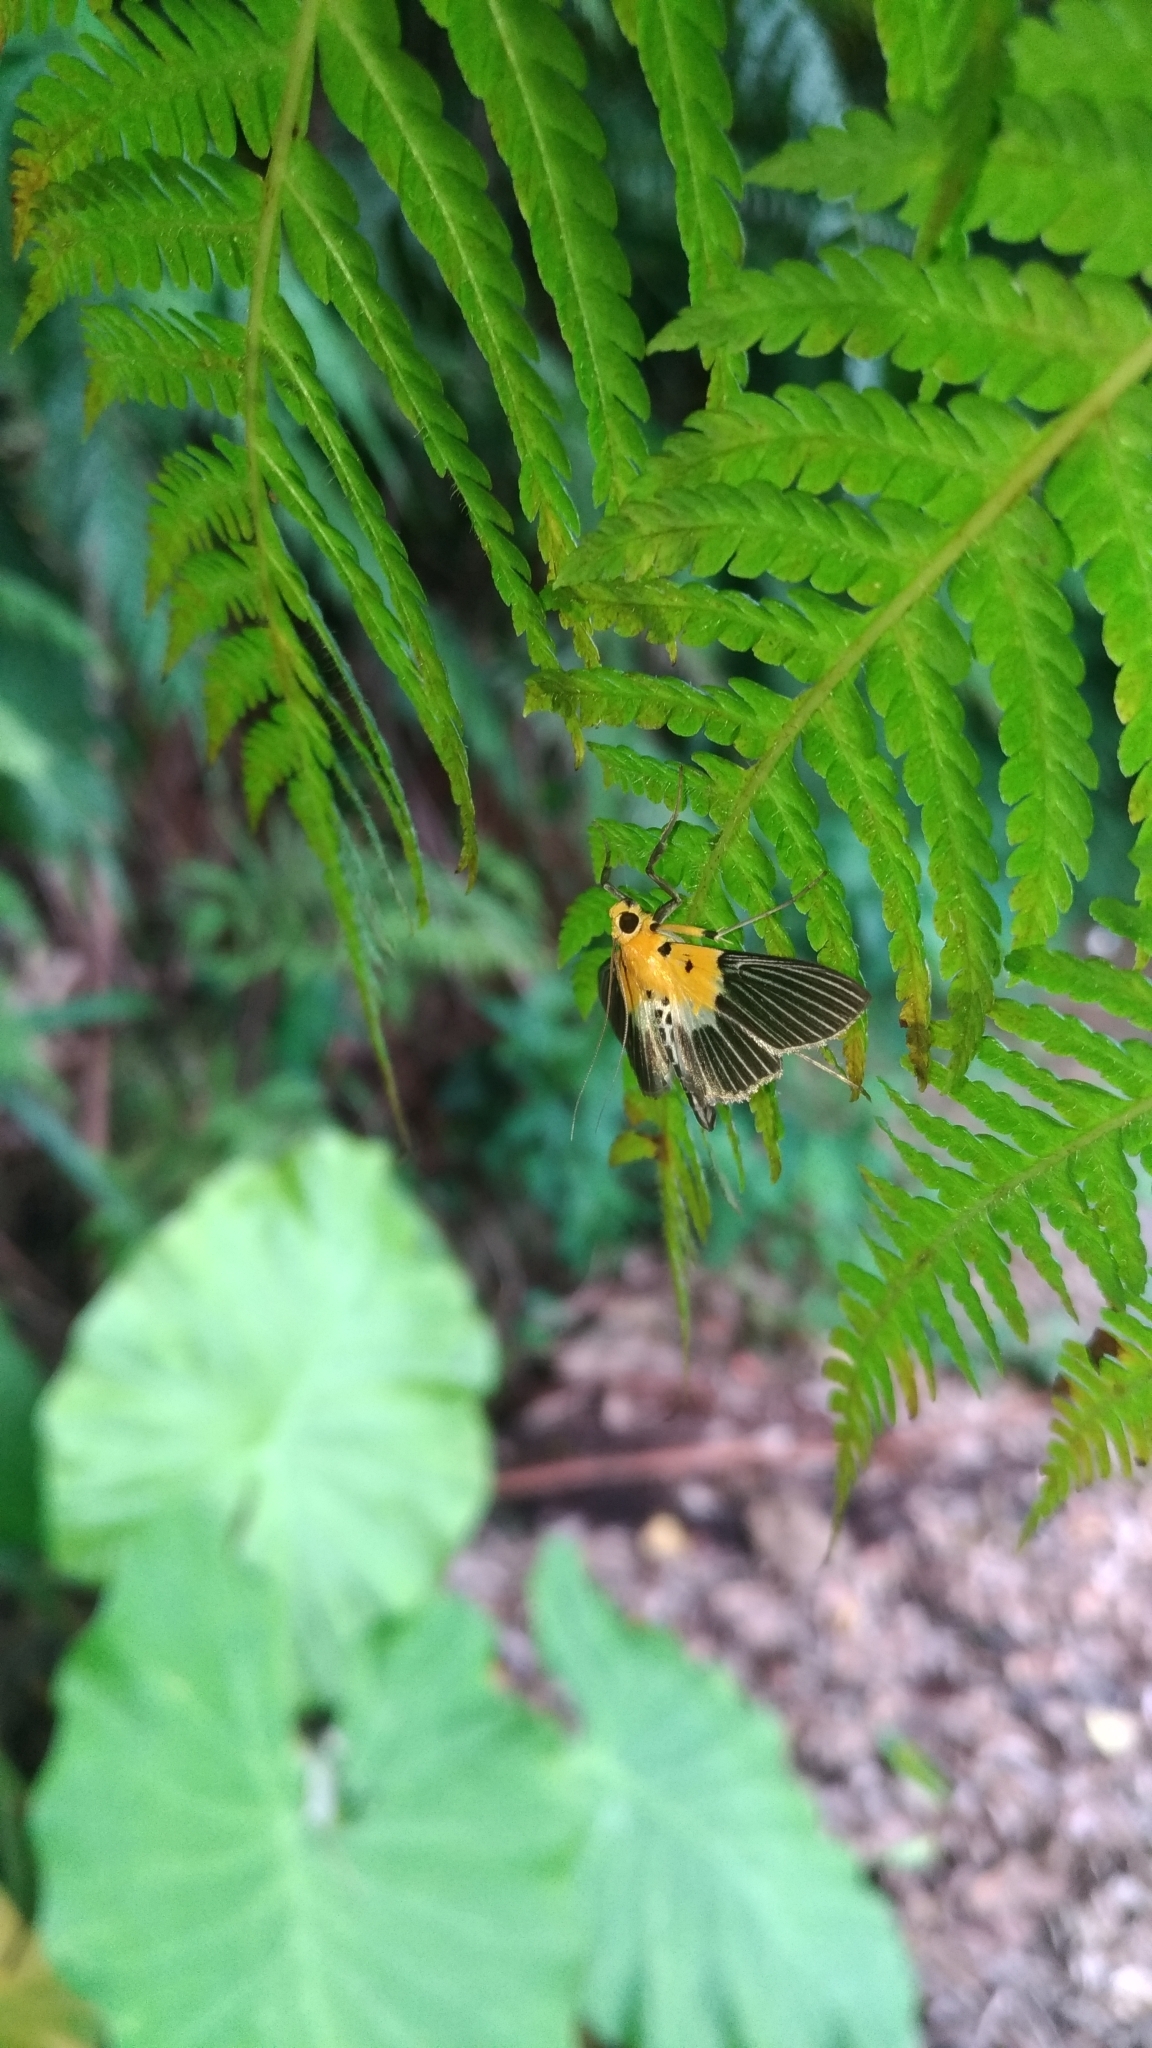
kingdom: Animalia
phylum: Arthropoda
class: Insecta
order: Lepidoptera
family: Crambidae
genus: Nevrina
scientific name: Nevrina procopia
